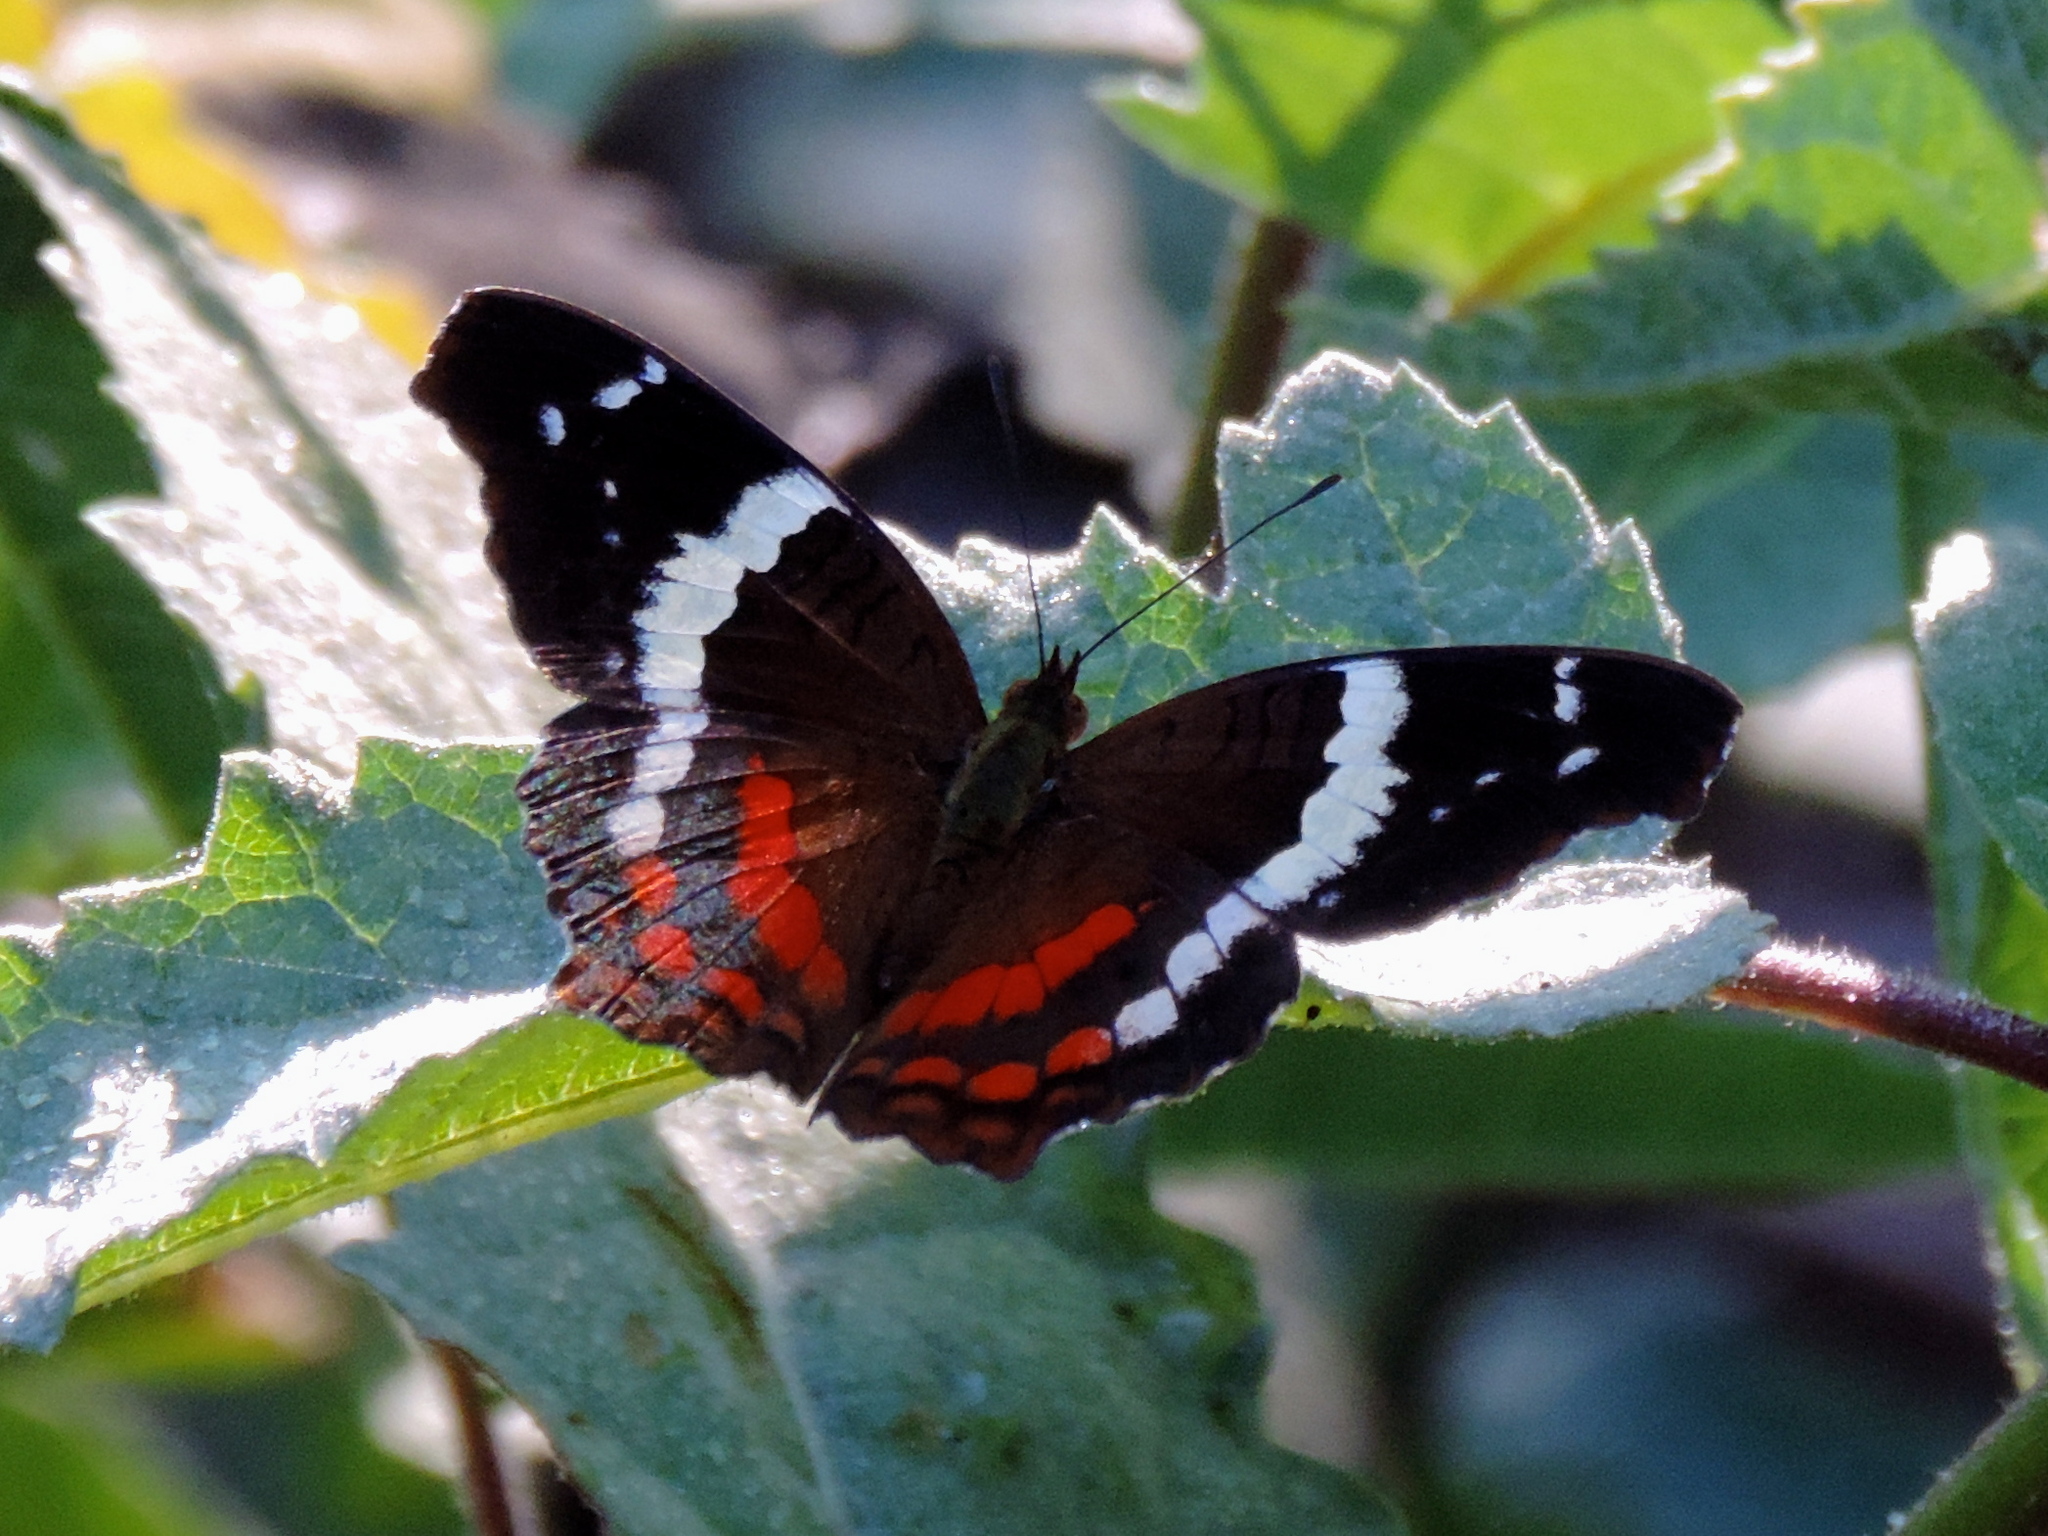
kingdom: Animalia
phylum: Arthropoda
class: Insecta
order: Lepidoptera
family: Nymphalidae
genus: Anartia
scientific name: Anartia fatima
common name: Banded peacock
